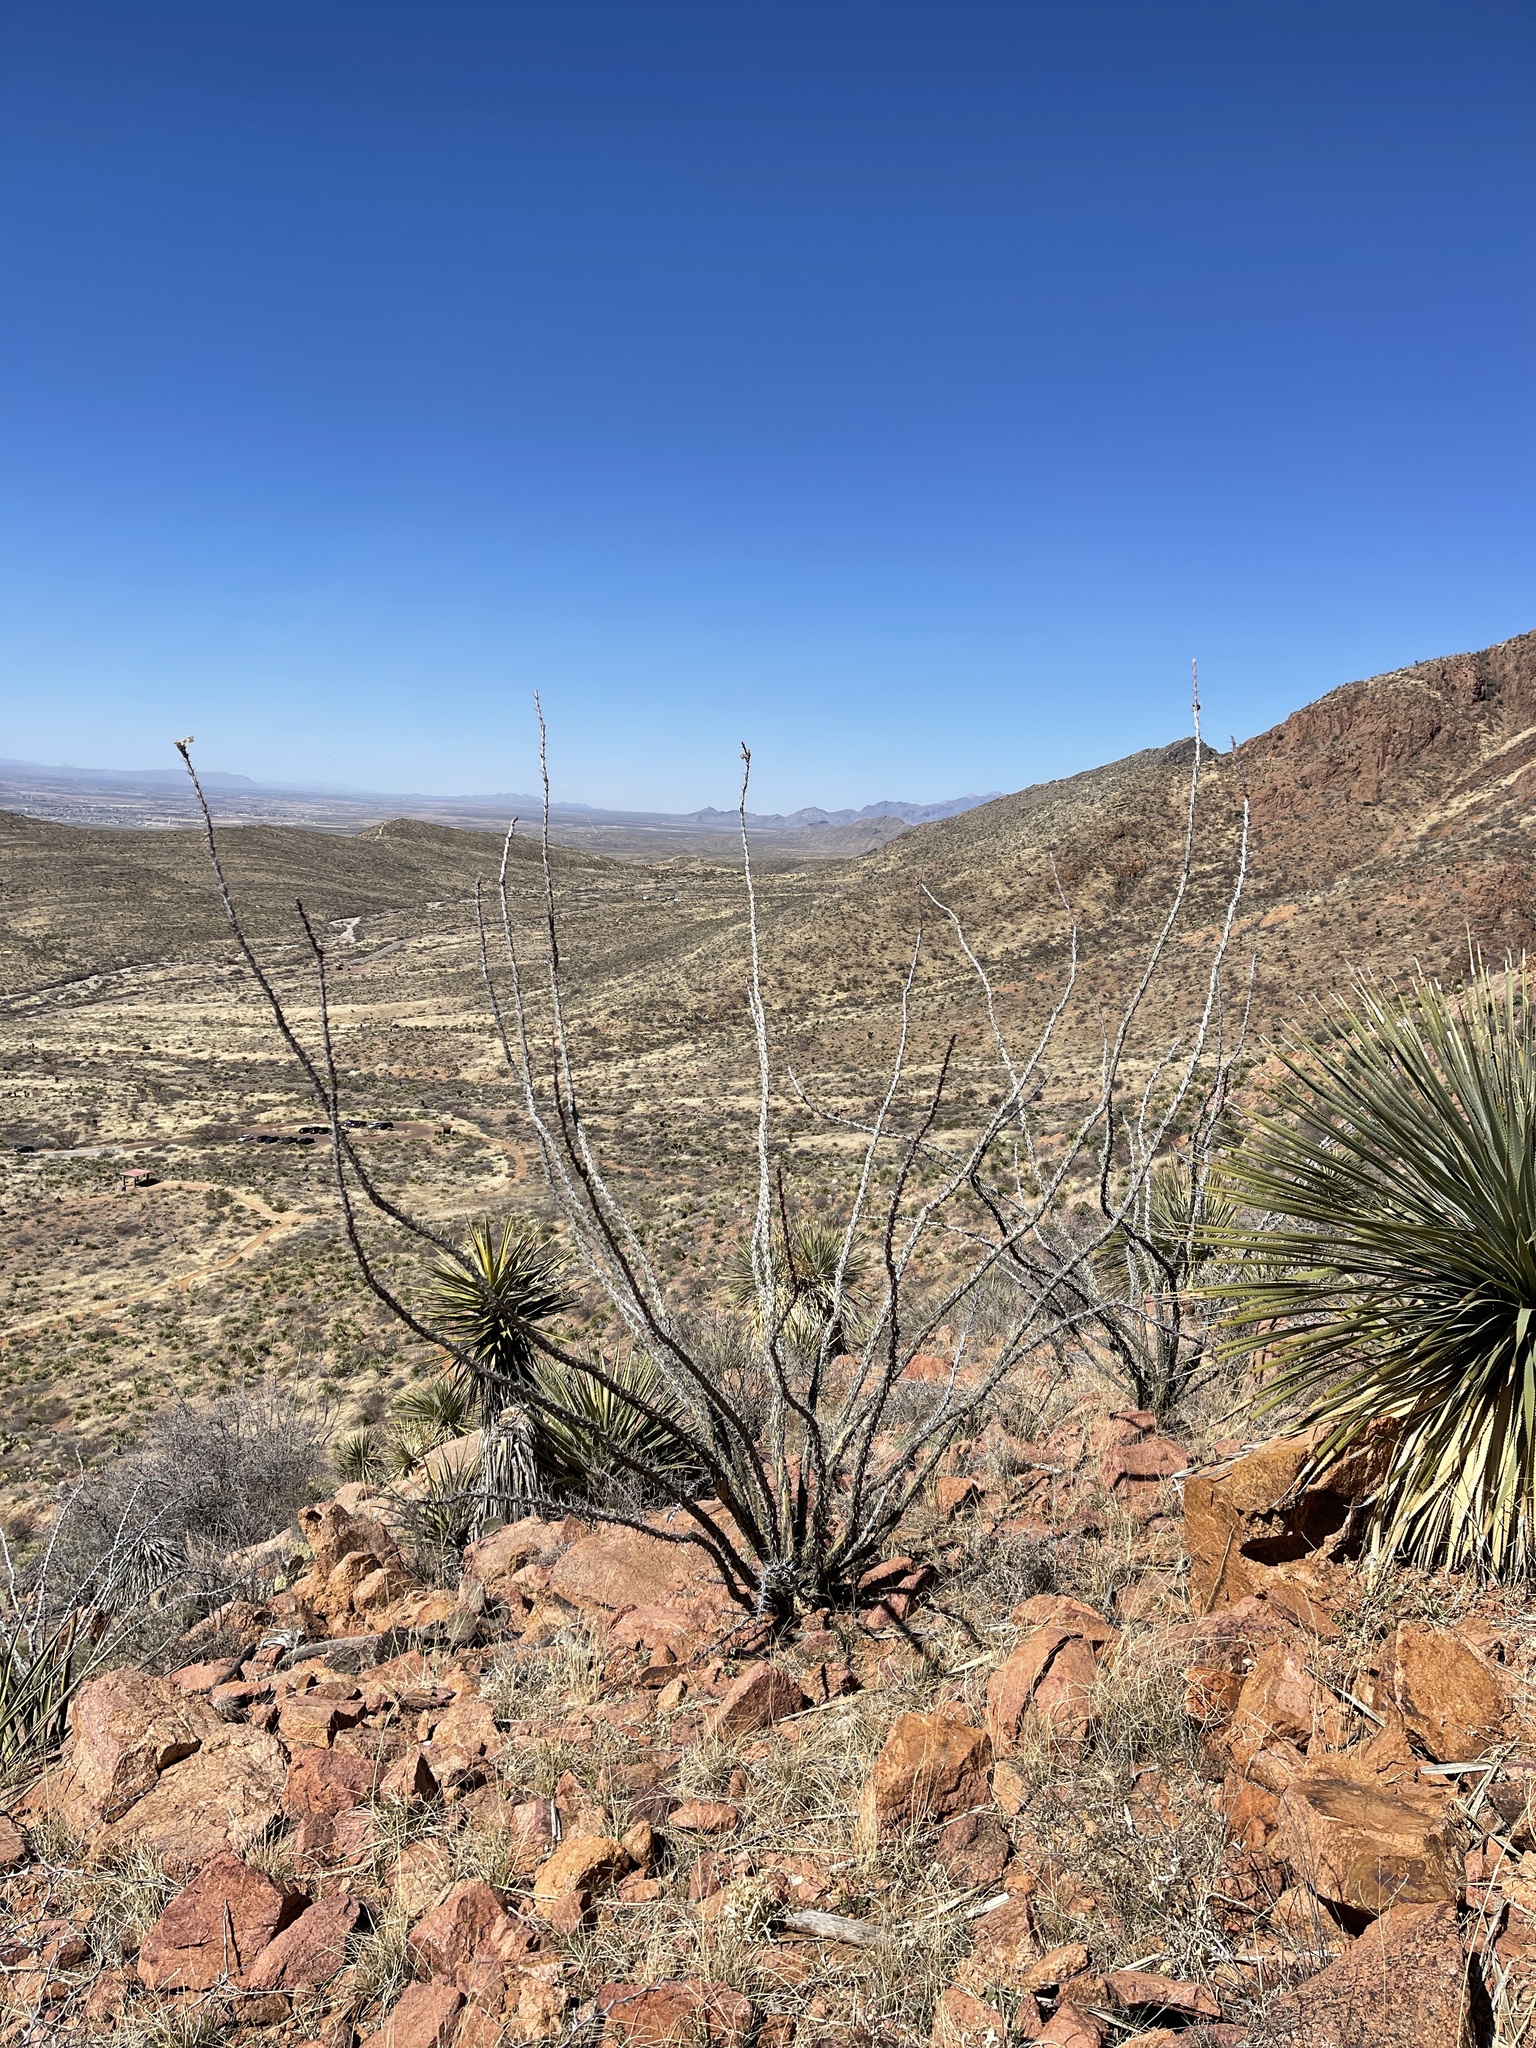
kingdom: Plantae
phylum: Tracheophyta
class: Magnoliopsida
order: Ericales
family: Fouquieriaceae
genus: Fouquieria
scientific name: Fouquieria splendens
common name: Vine-cactus
